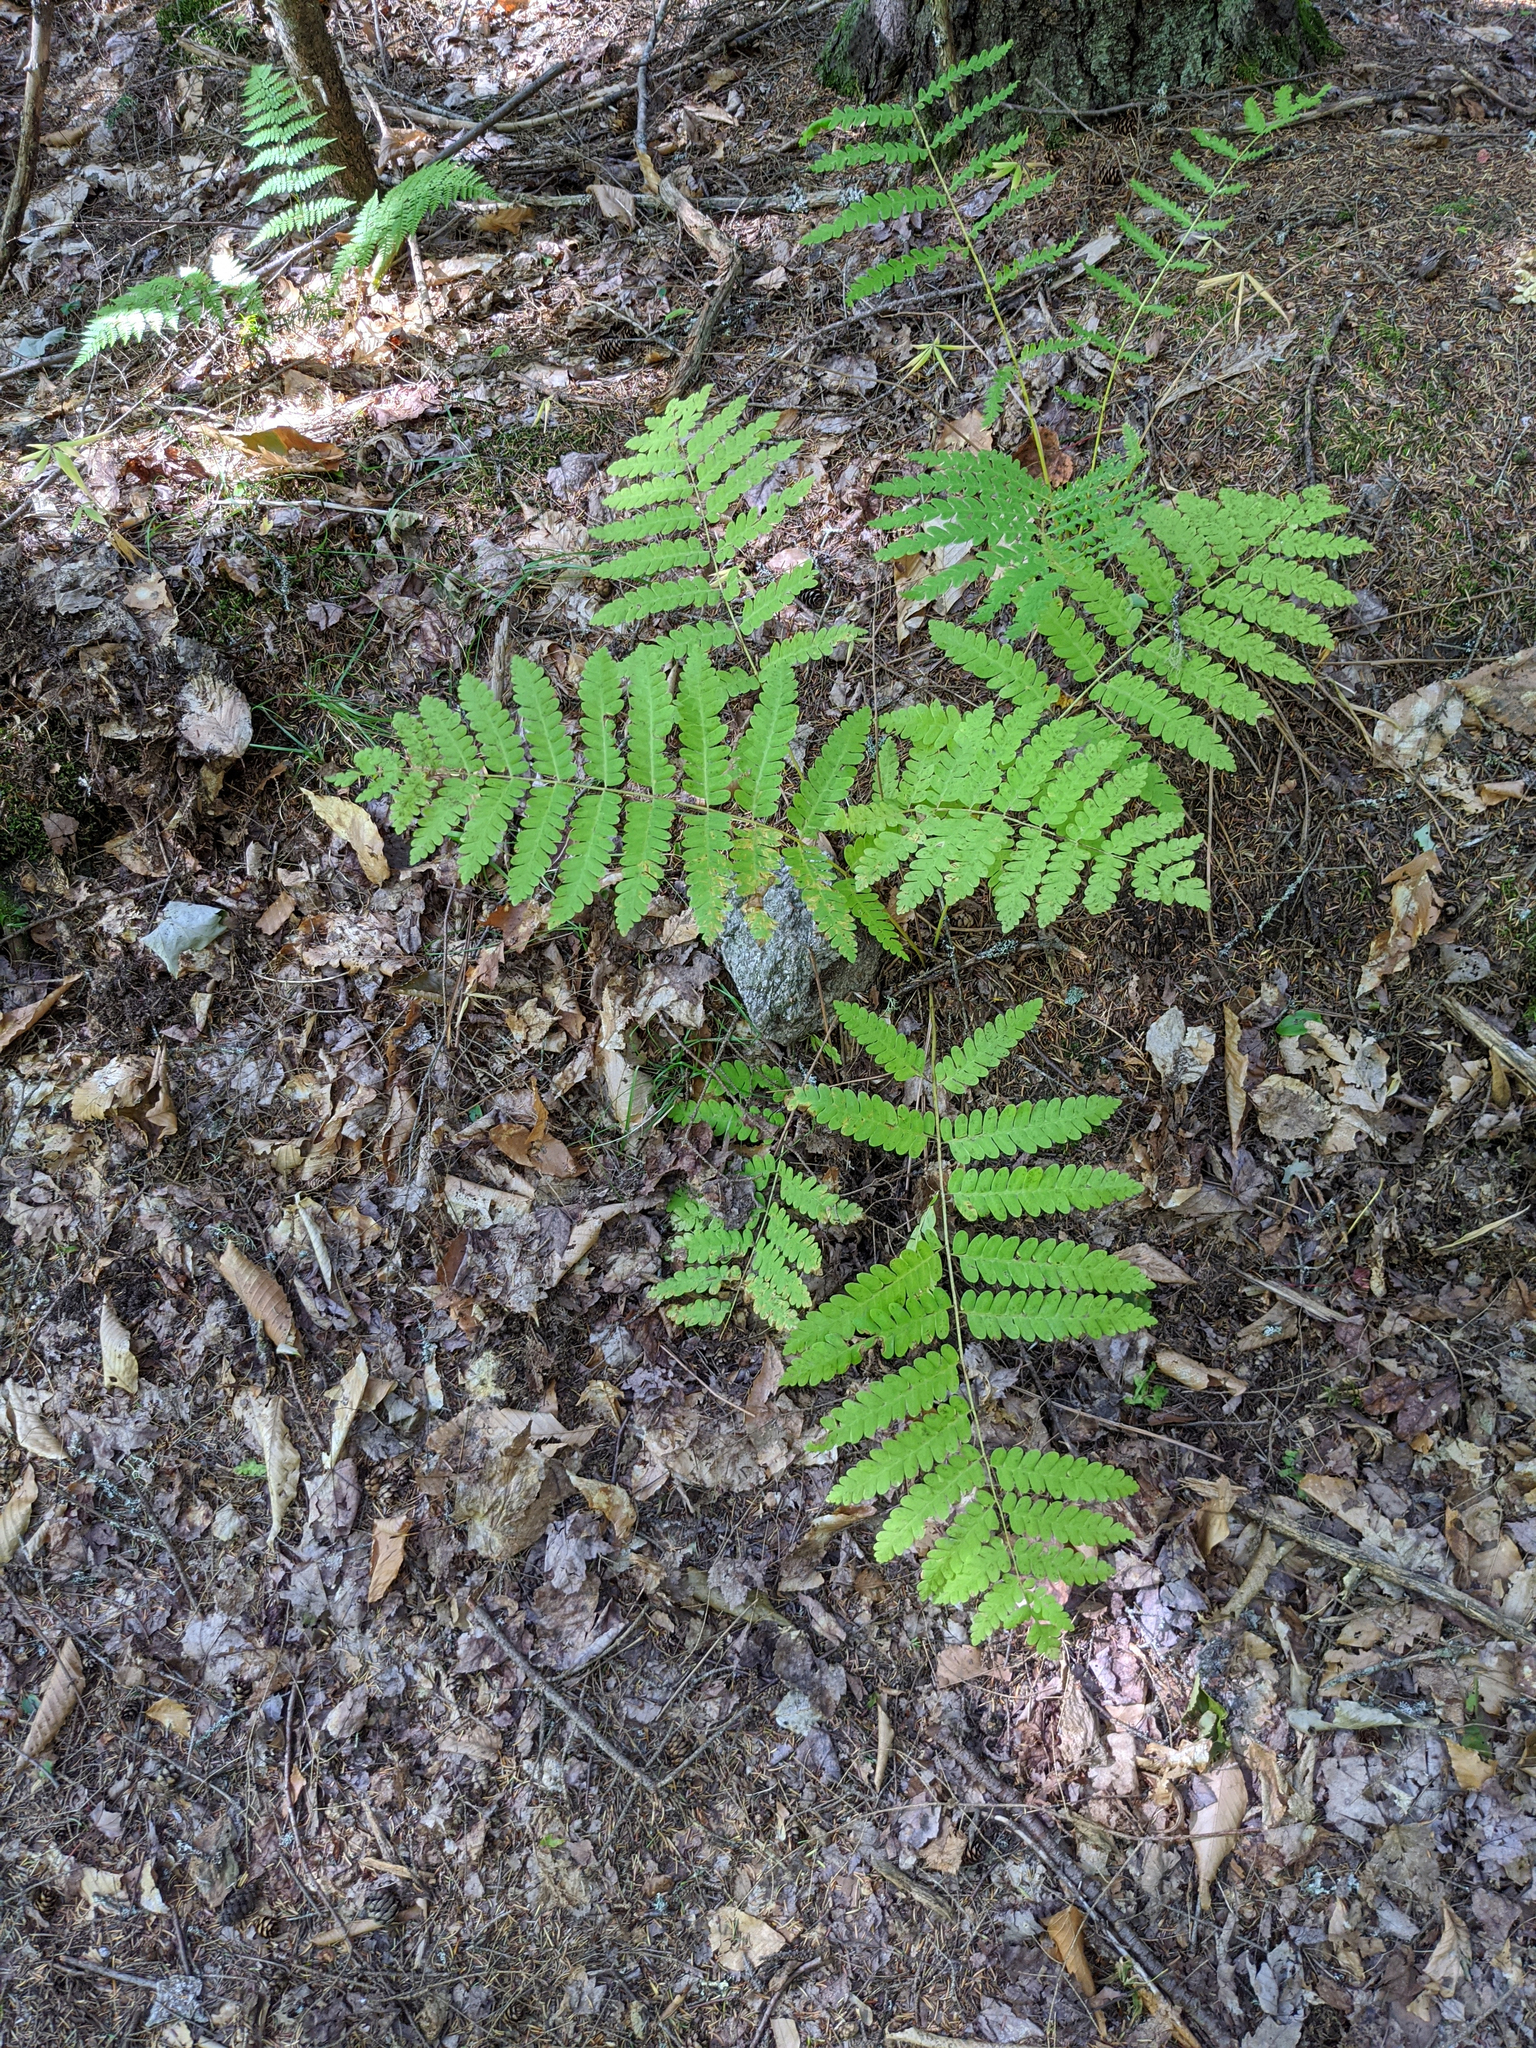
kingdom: Plantae
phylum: Tracheophyta
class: Polypodiopsida
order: Osmundales
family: Osmundaceae
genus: Claytosmunda
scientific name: Claytosmunda claytoniana
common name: Clayton's fern
